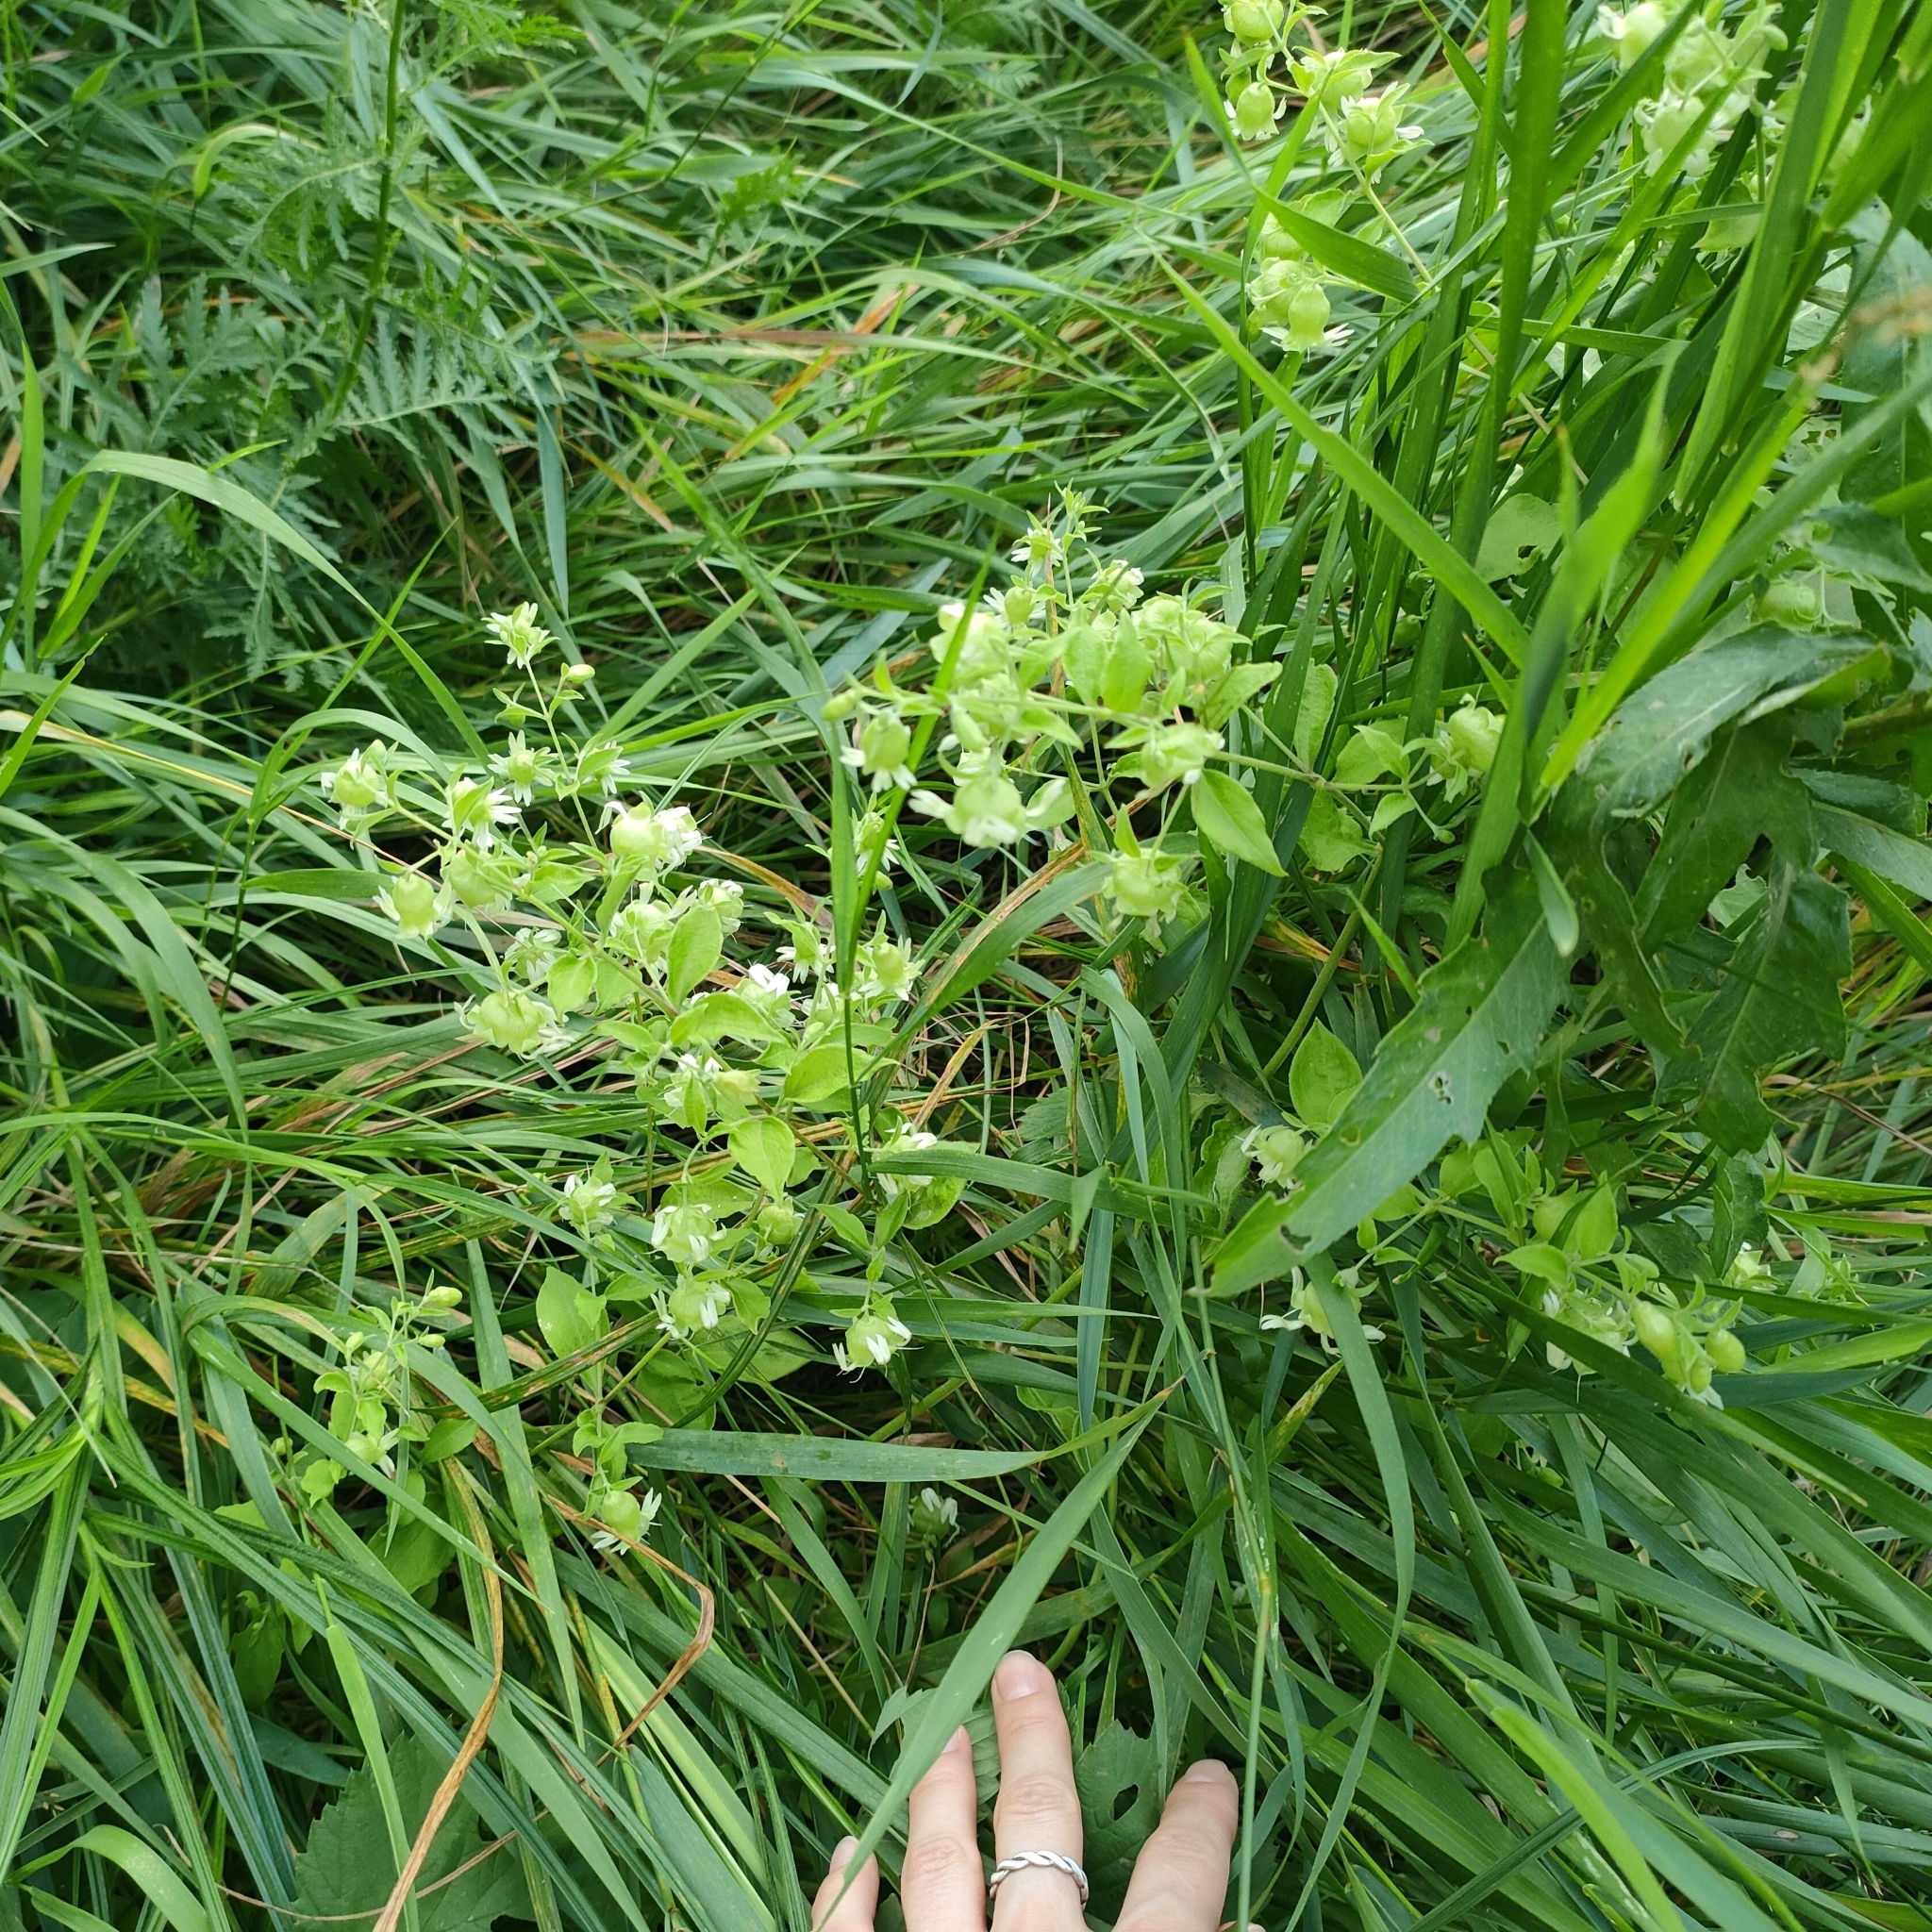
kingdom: Plantae
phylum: Tracheophyta
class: Magnoliopsida
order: Caryophyllales
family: Caryophyllaceae
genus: Silene
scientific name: Silene baccifera
